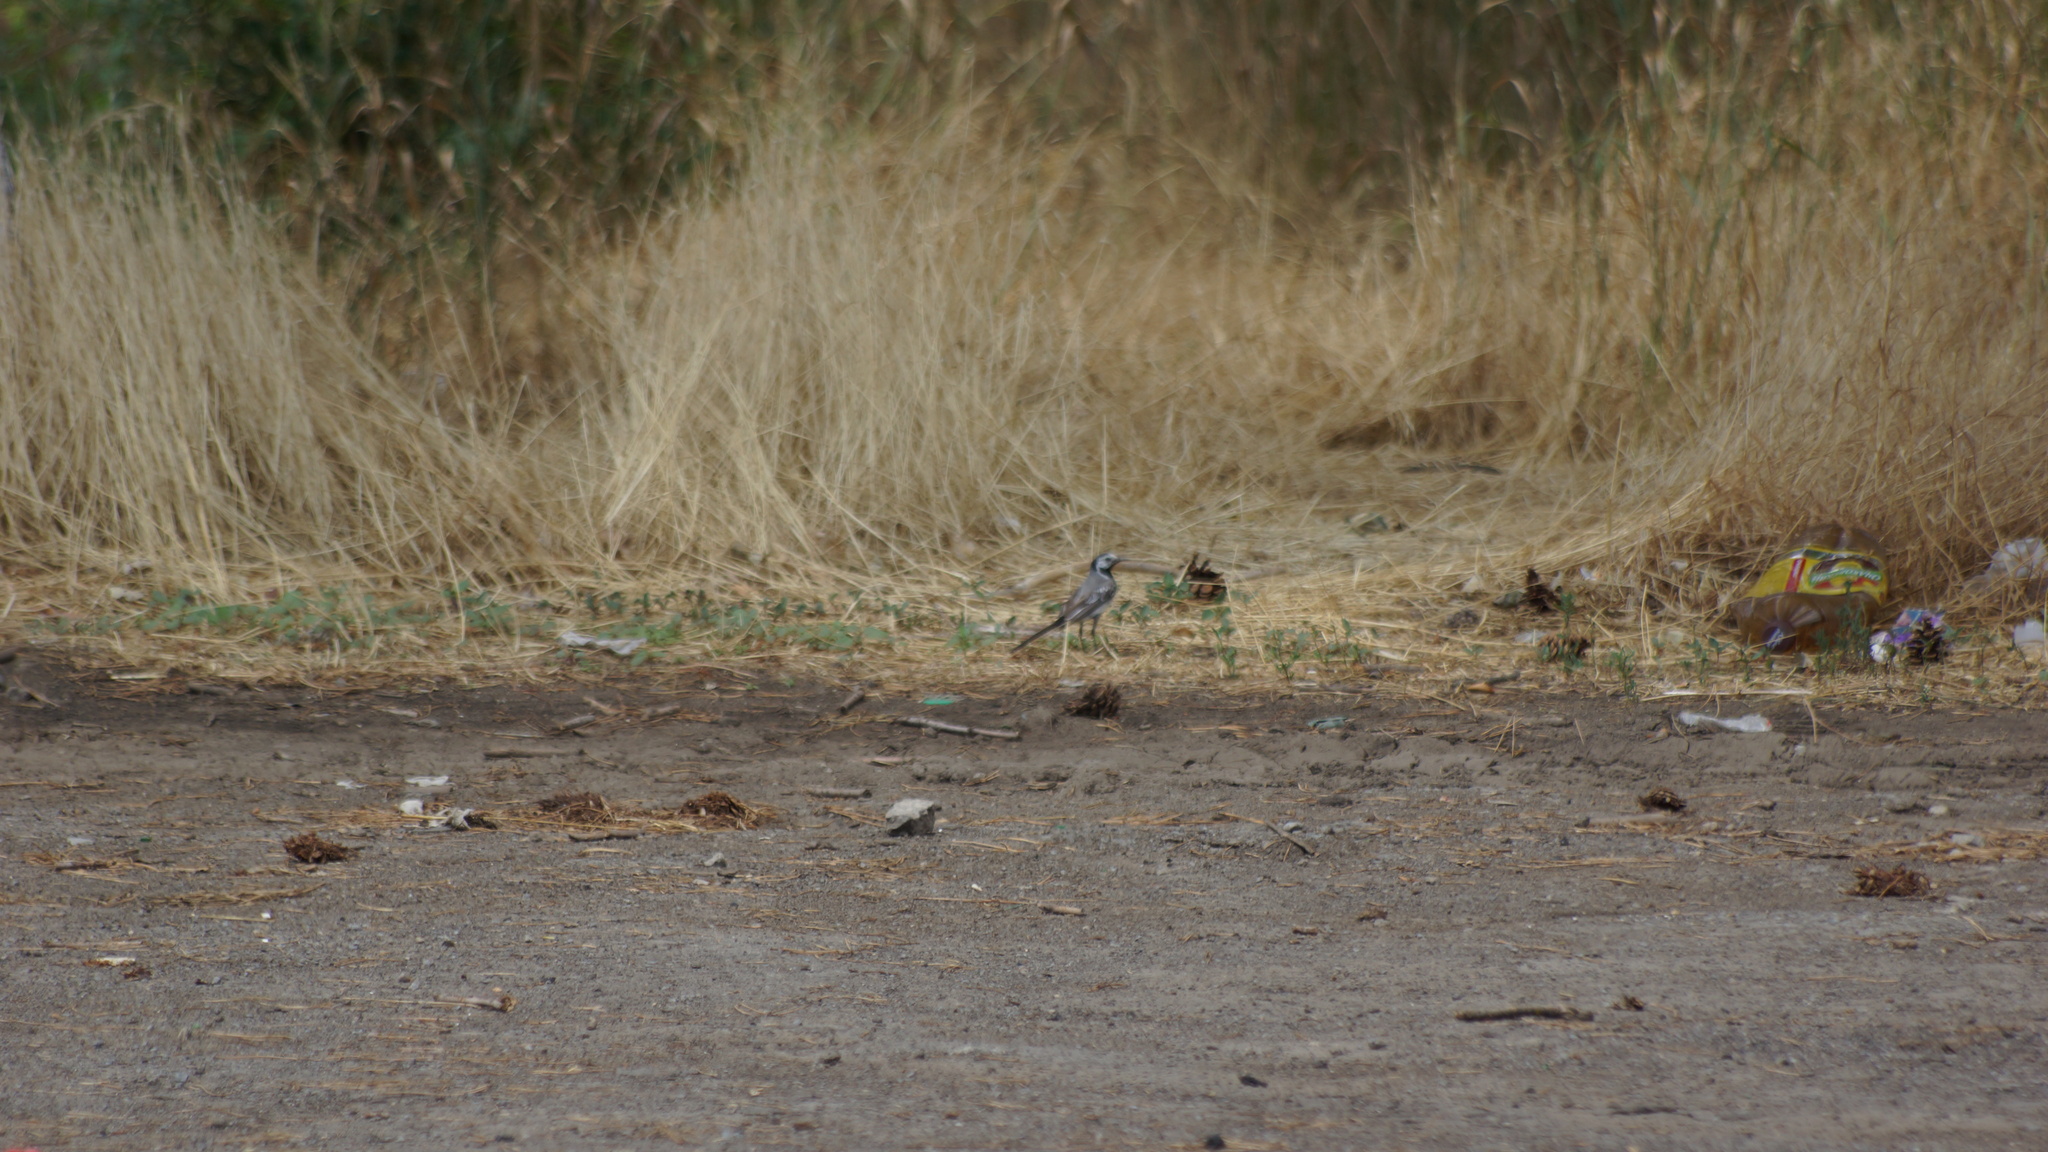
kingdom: Animalia
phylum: Chordata
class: Aves
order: Passeriformes
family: Motacillidae
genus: Motacilla
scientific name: Motacilla alba
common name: White wagtail
